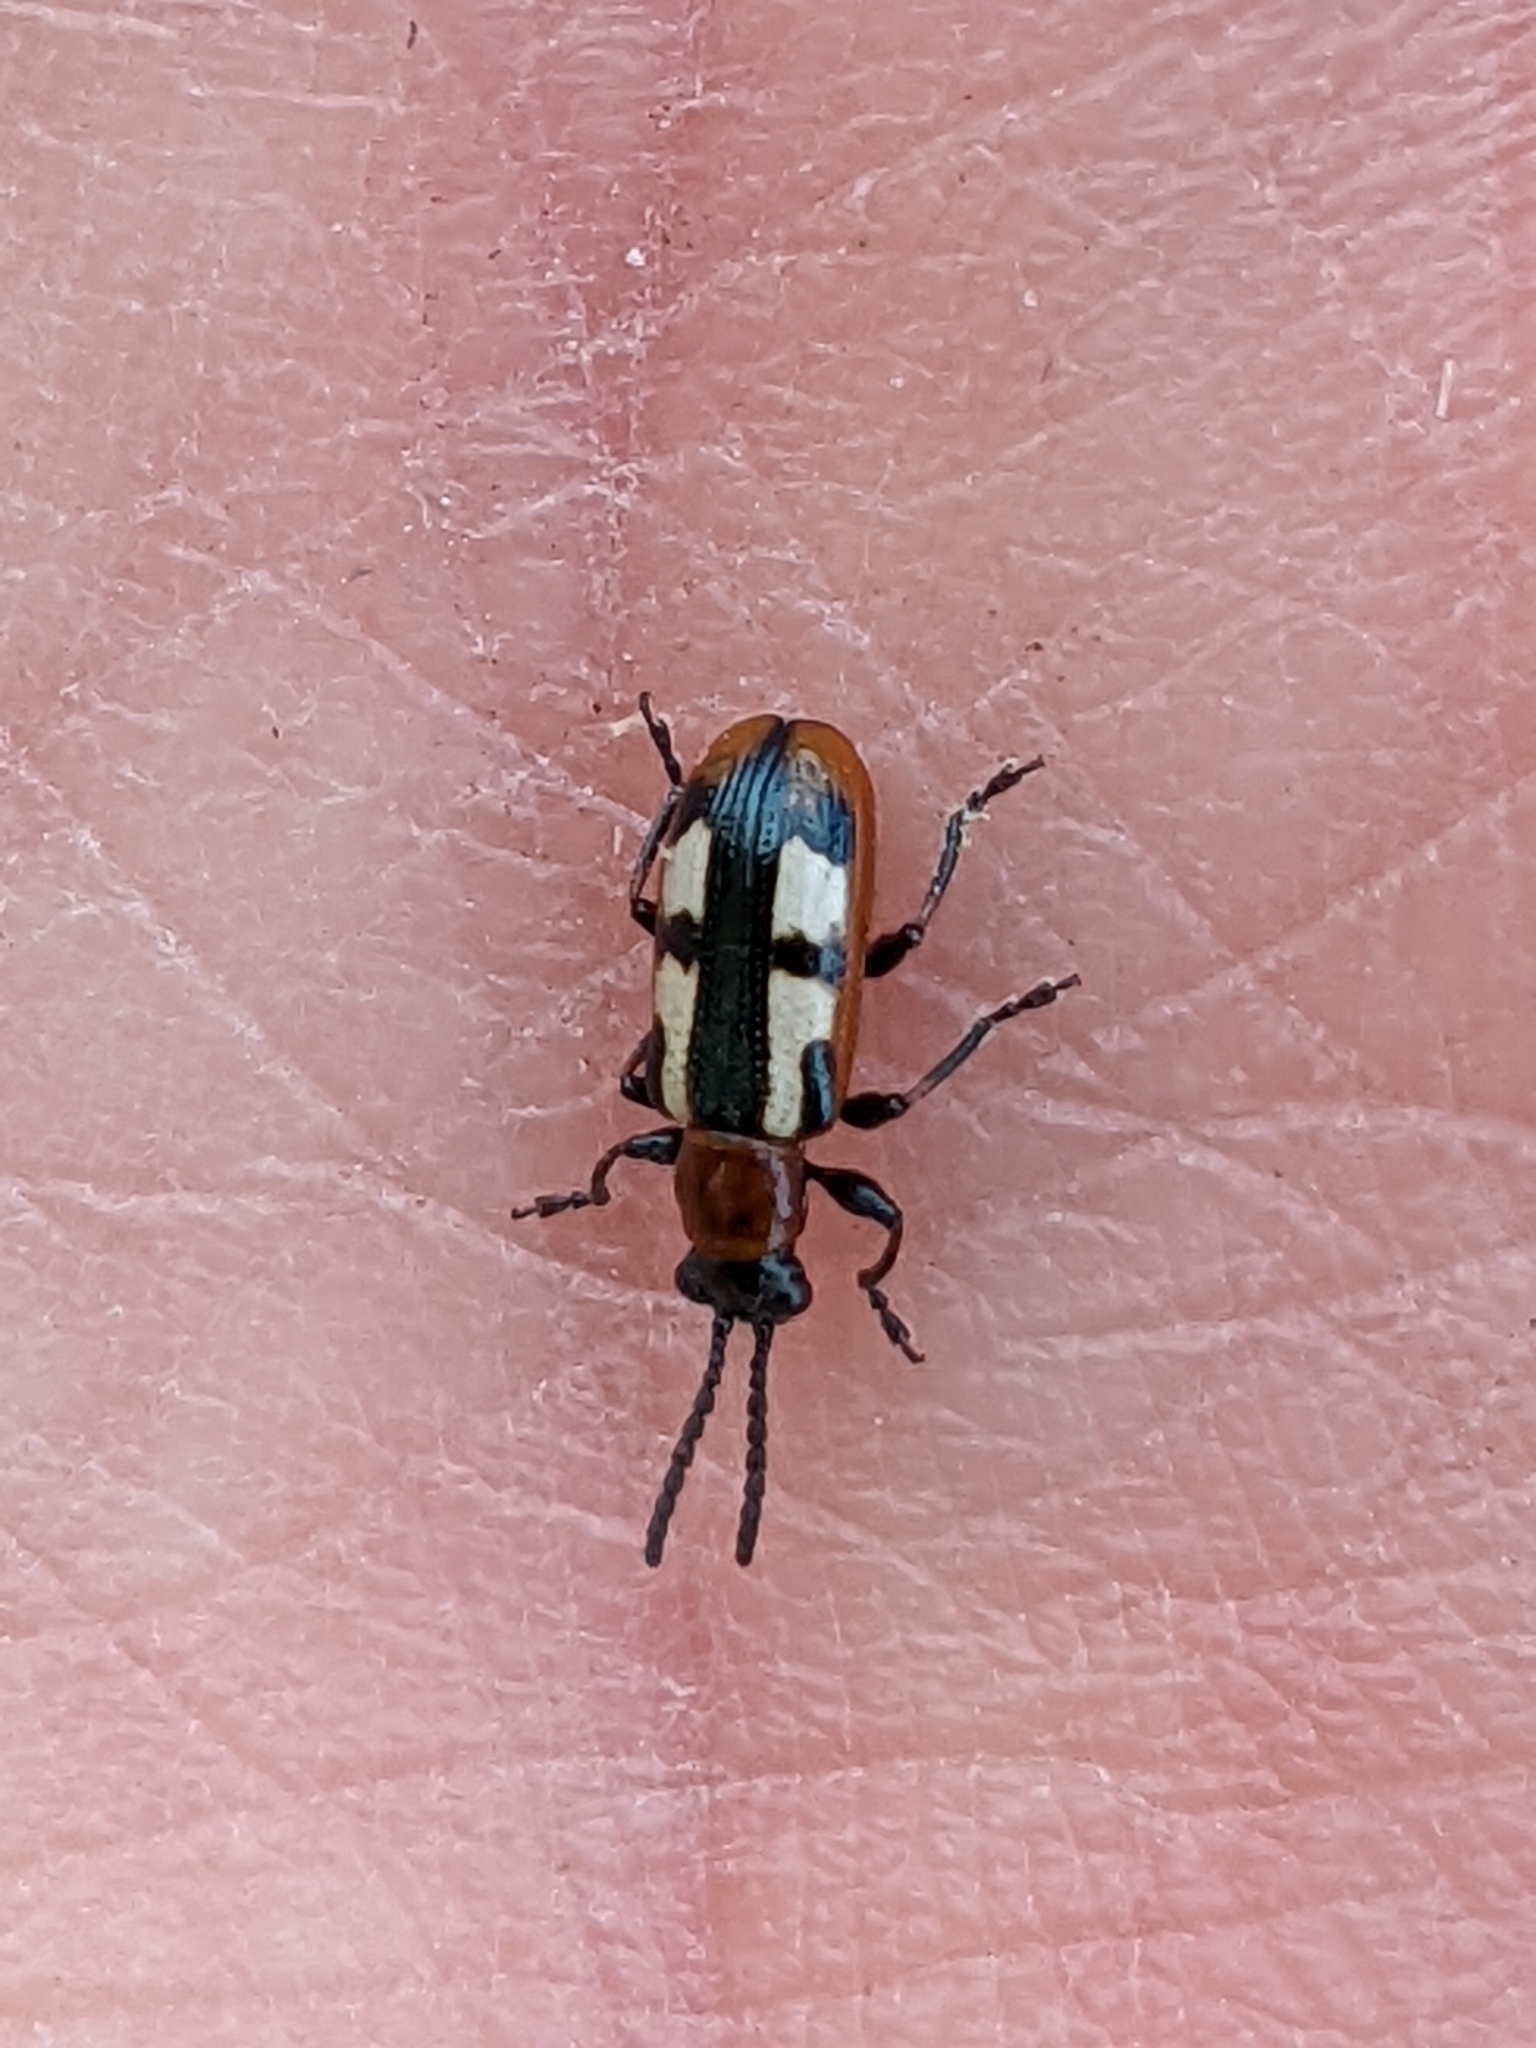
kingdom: Animalia
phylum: Arthropoda
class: Insecta
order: Coleoptera
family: Chrysomelidae
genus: Crioceris
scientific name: Crioceris asparagi
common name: Asparagus beetle
